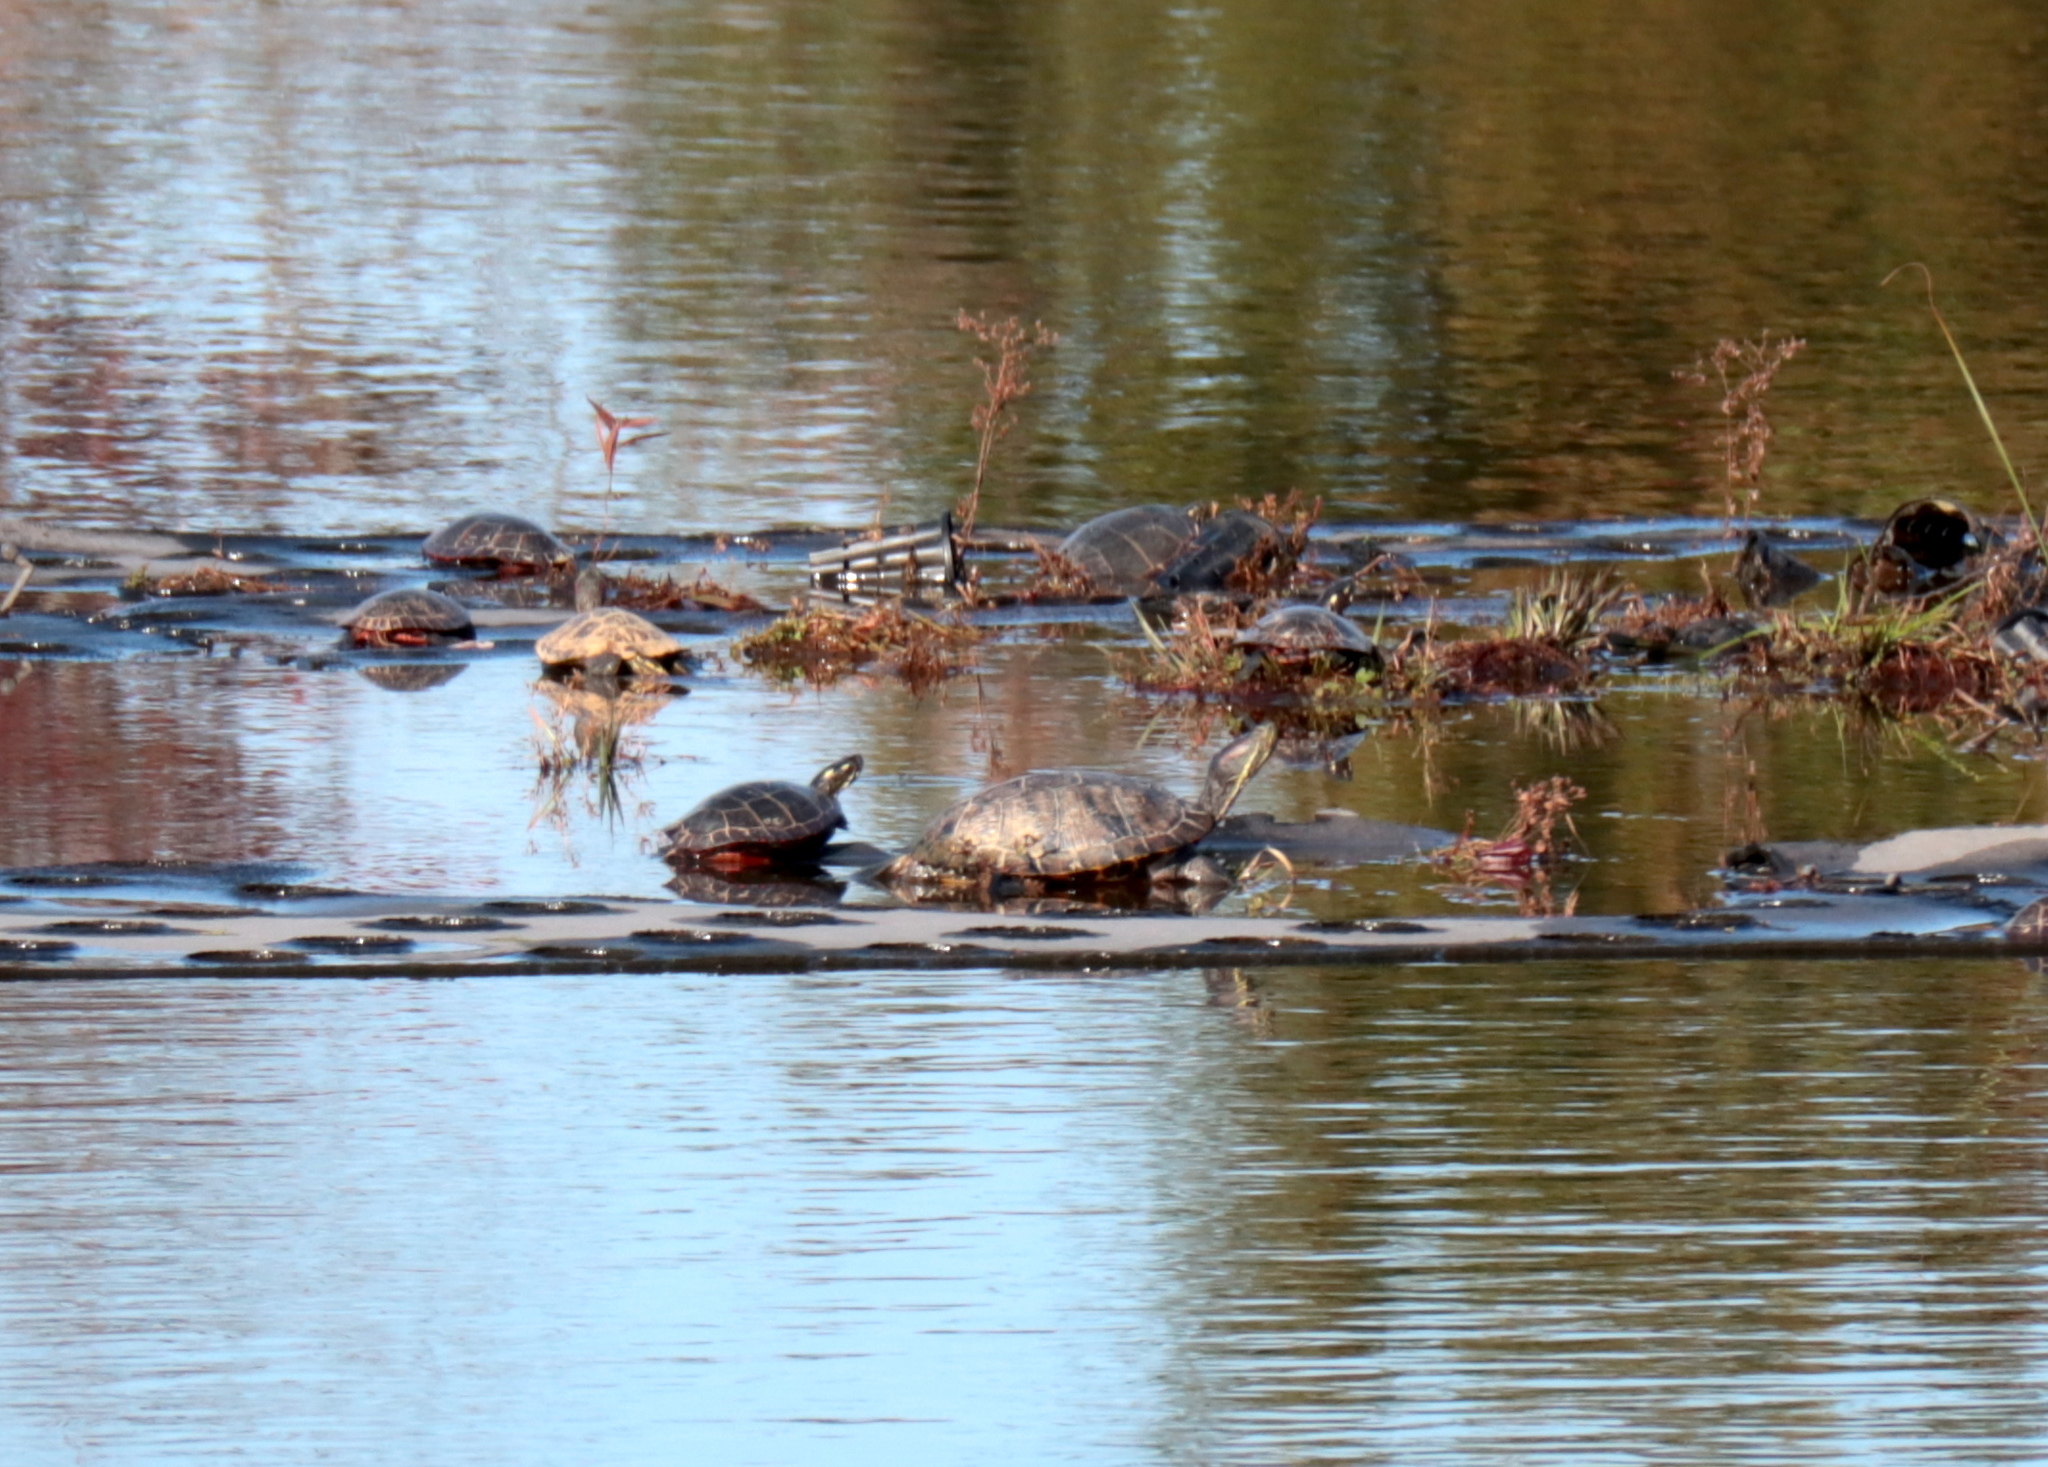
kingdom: Animalia
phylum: Chordata
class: Testudines
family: Emydidae
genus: Trachemys
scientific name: Trachemys scripta
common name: Slider
